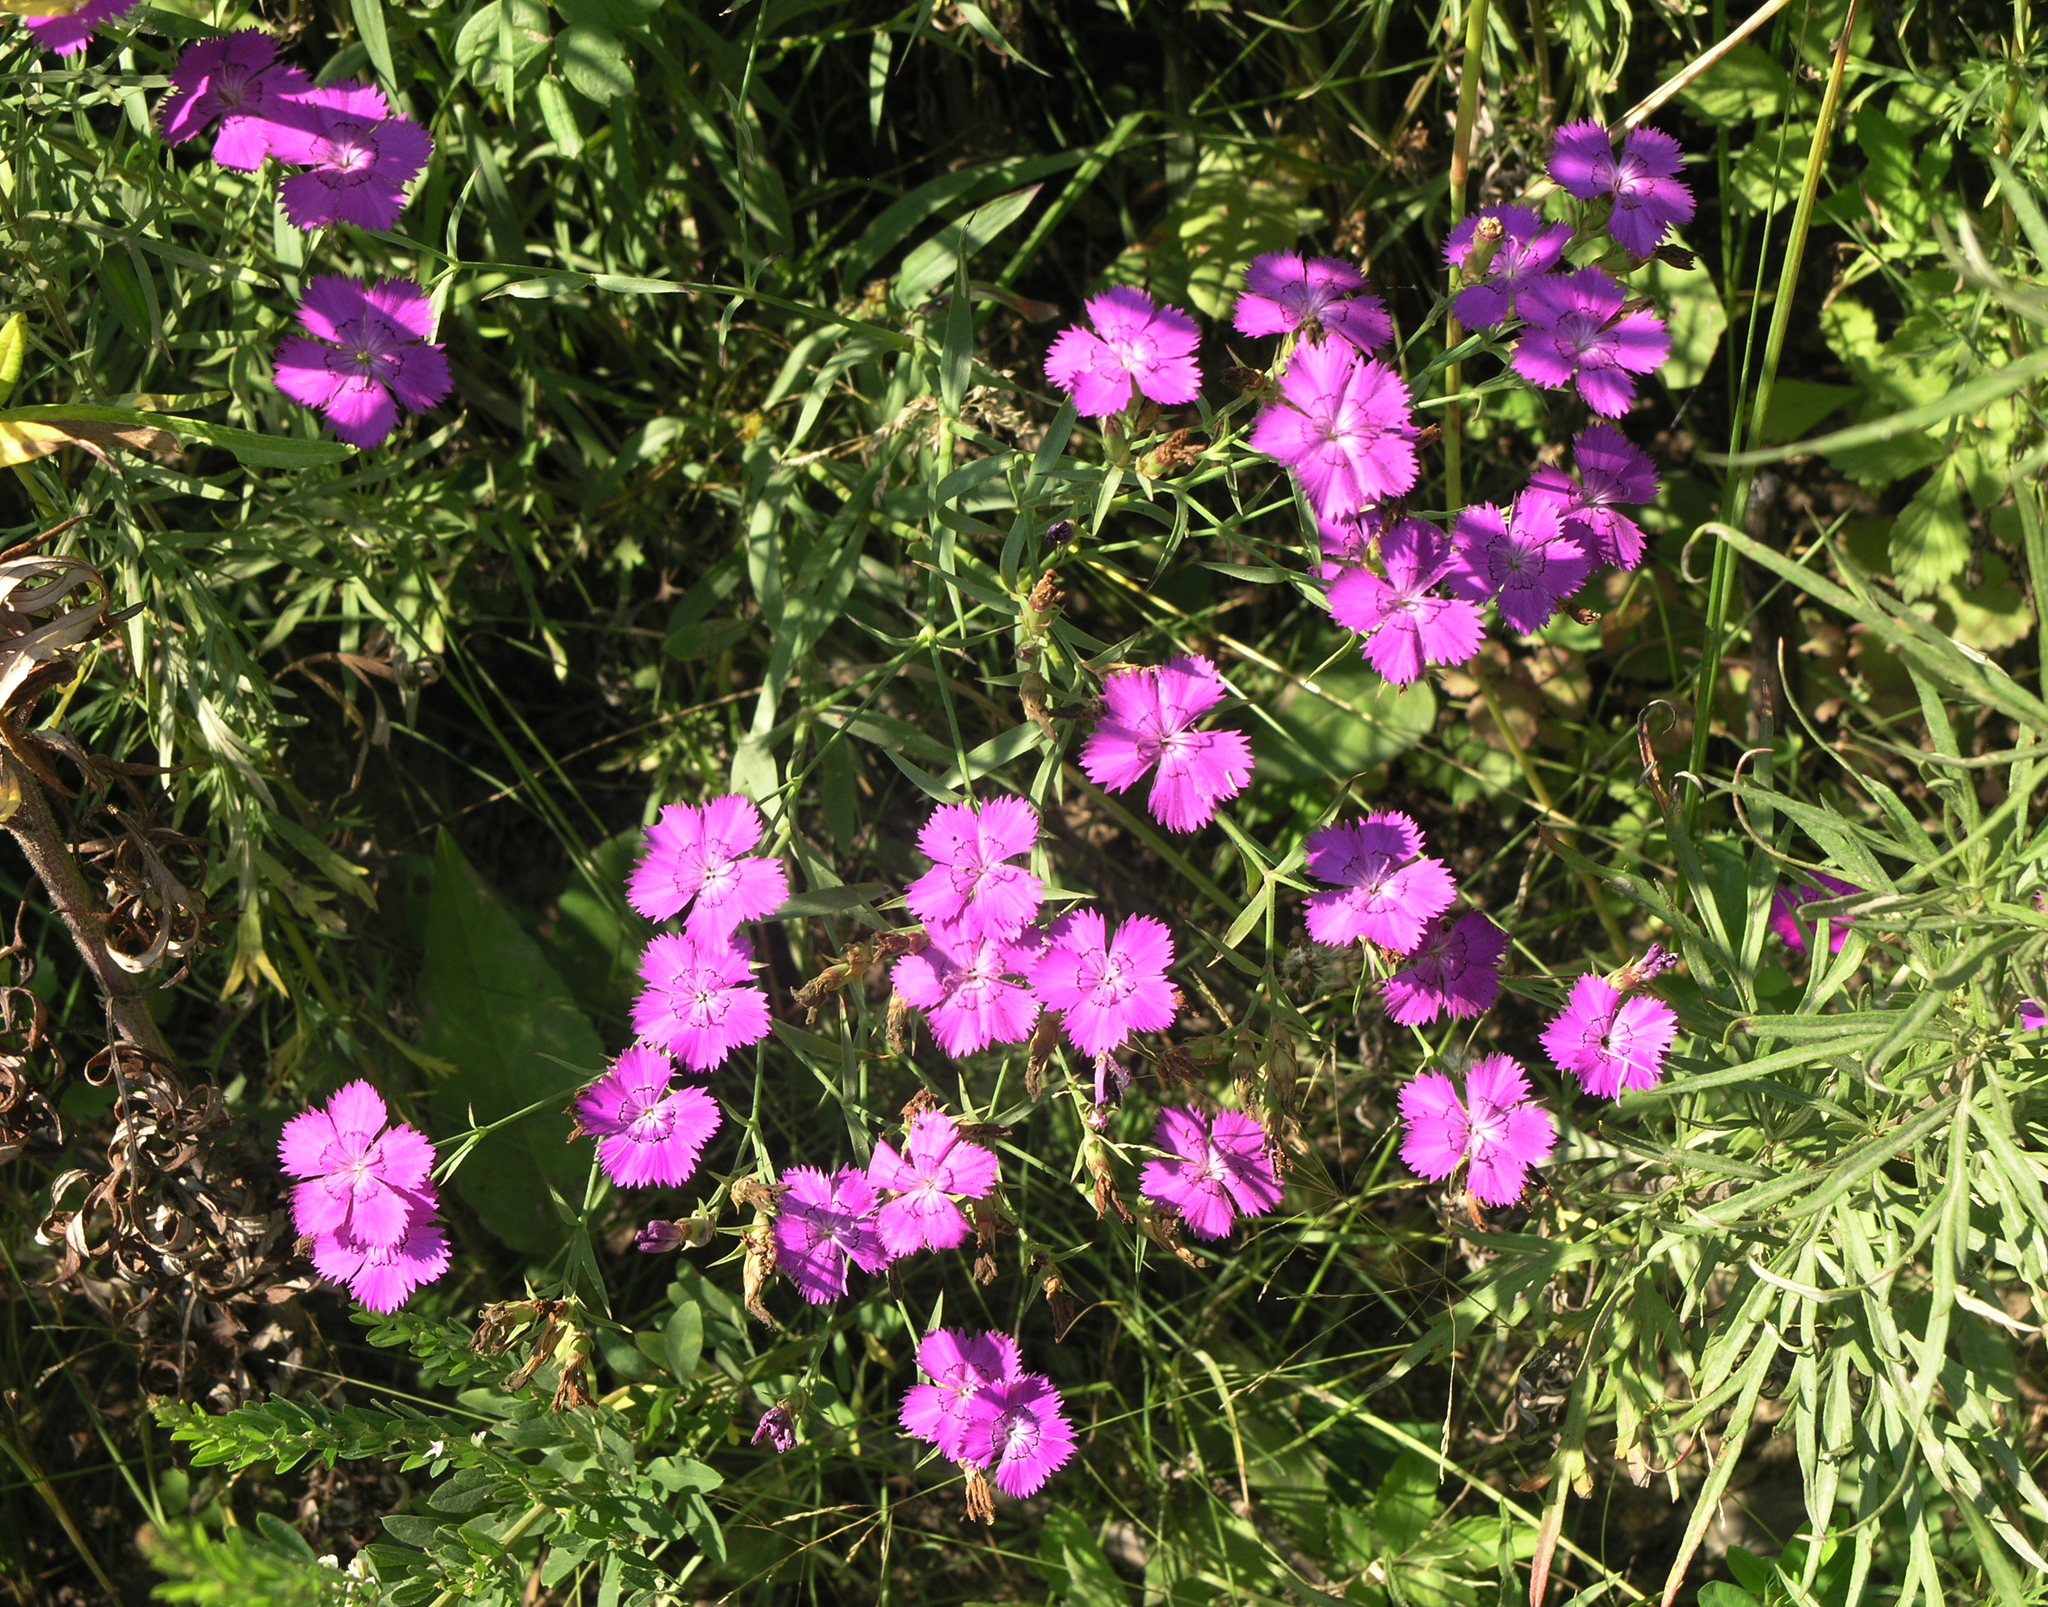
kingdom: Plantae
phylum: Tracheophyta
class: Magnoliopsida
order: Caryophyllales
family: Caryophyllaceae
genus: Dianthus
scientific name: Dianthus chinensis
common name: Rainbow pink
